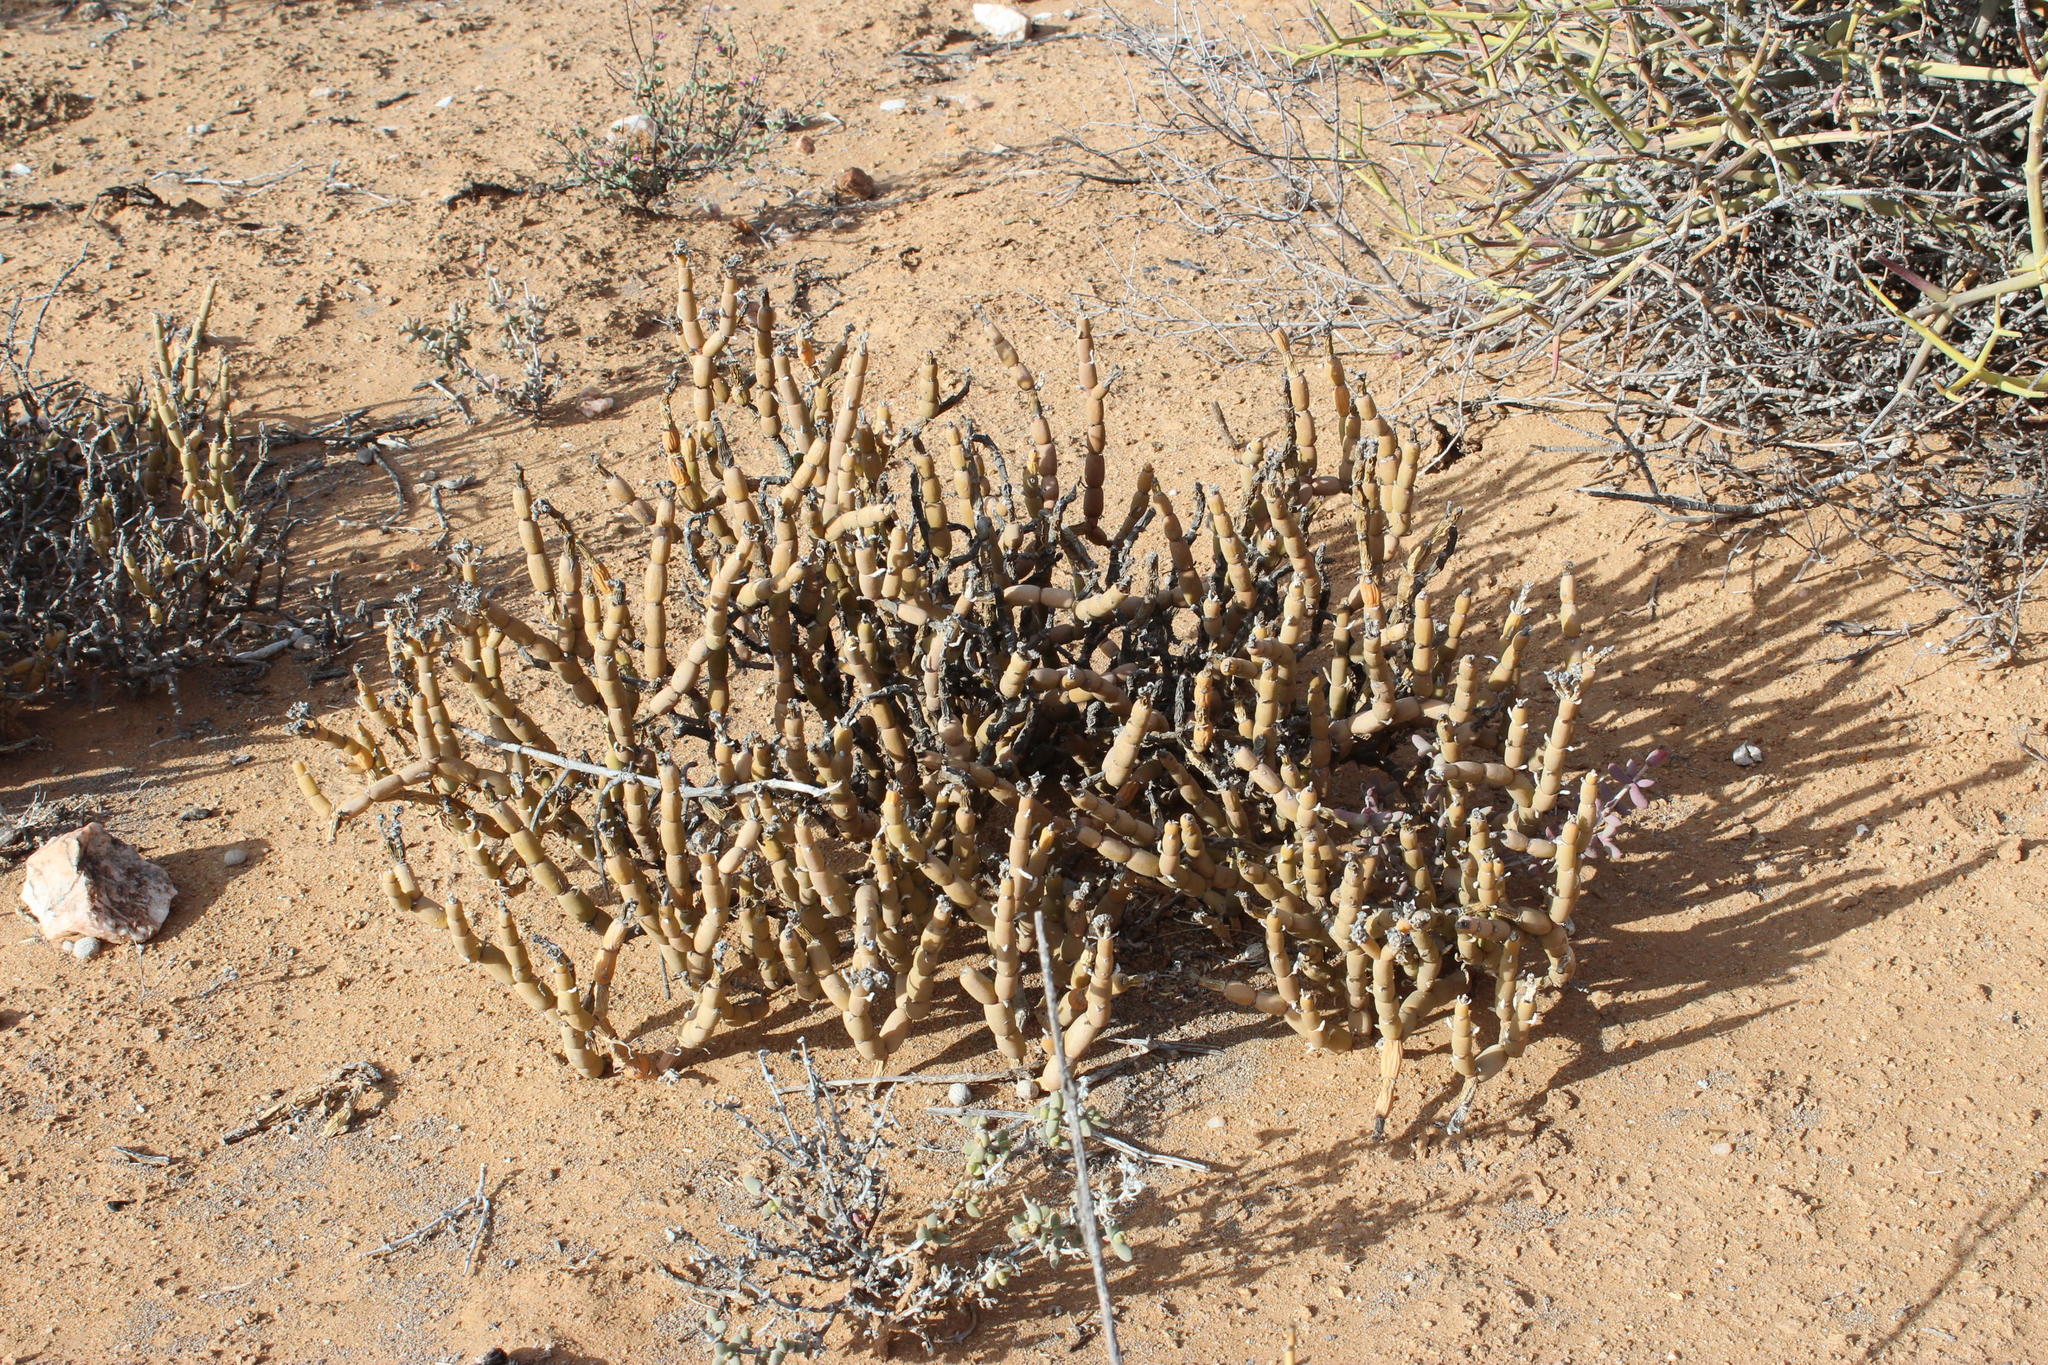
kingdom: Plantae
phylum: Tracheophyta
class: Magnoliopsida
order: Caryophyllales
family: Aizoaceae
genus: Mesembryanthemum
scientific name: Mesembryanthemum pseudoschlichtianum
